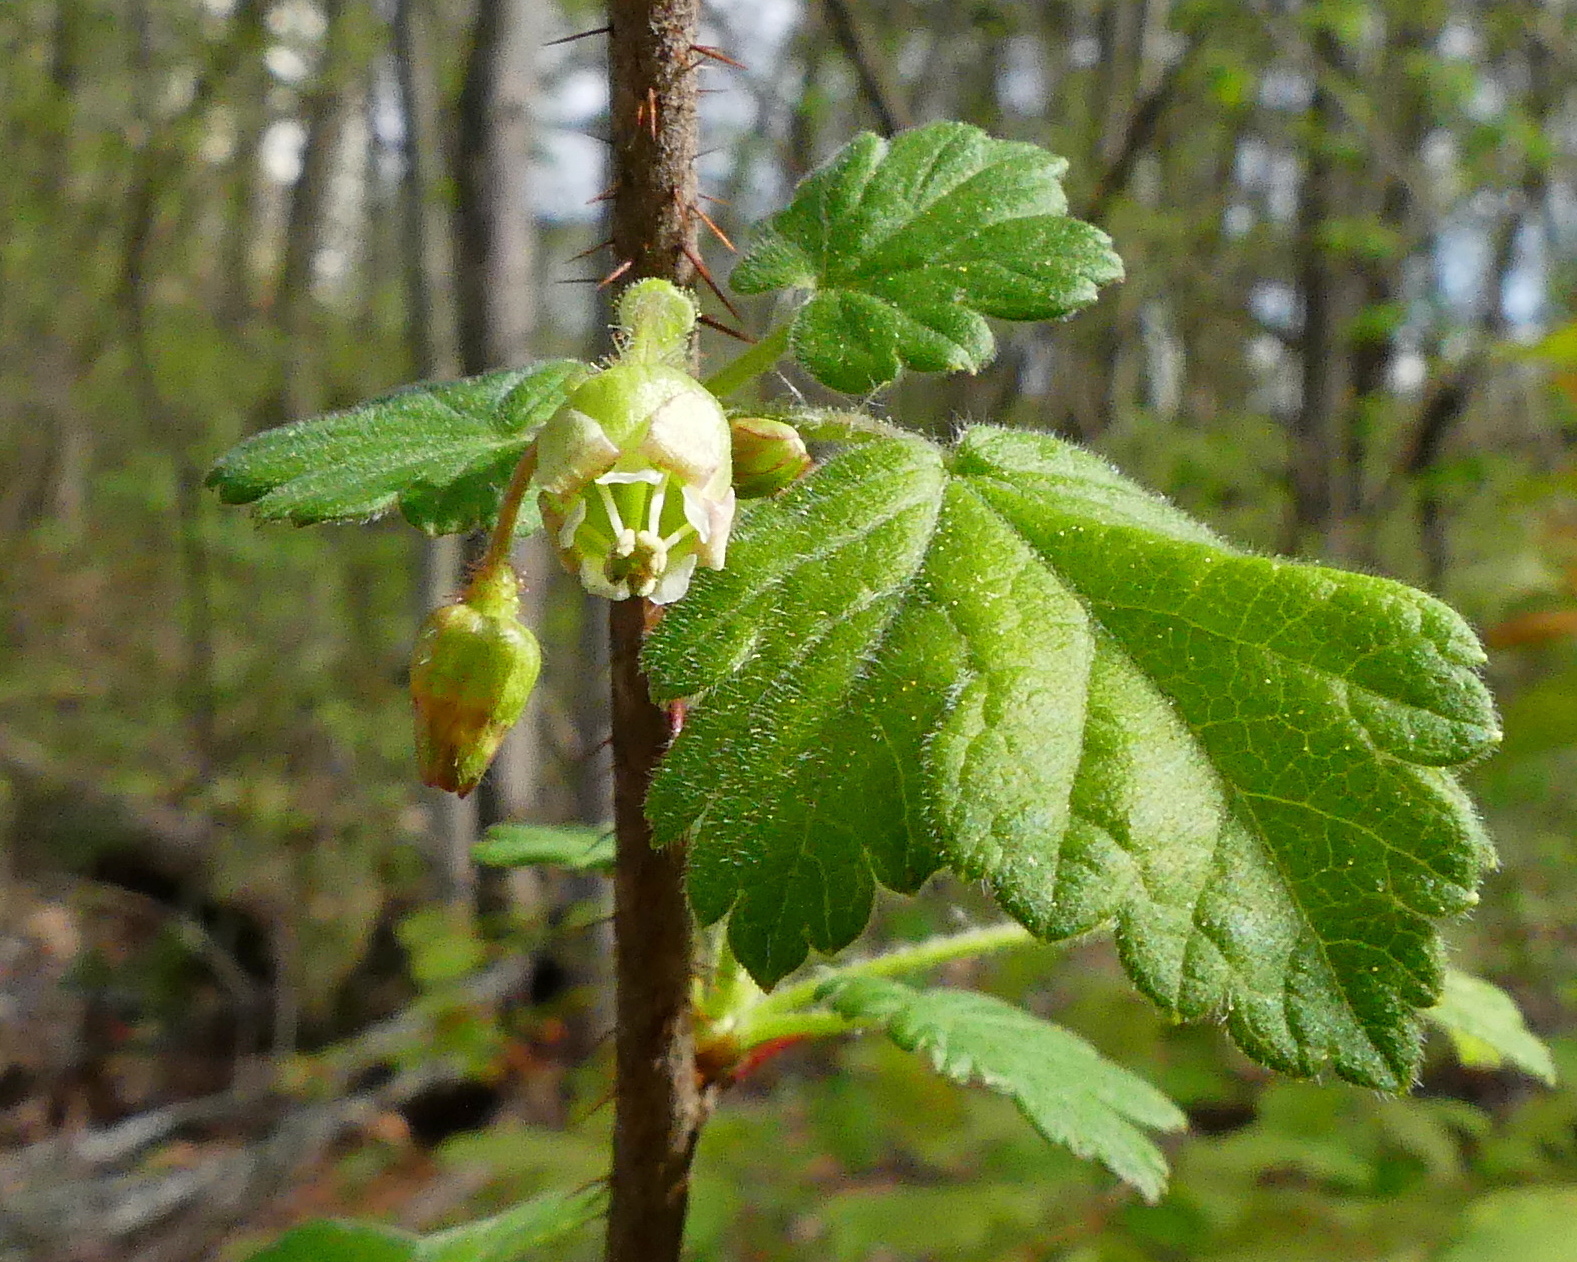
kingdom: Plantae
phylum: Tracheophyta
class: Magnoliopsida
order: Saxifragales
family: Grossulariaceae
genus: Ribes
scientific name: Ribes cynosbati
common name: American gooseberry
